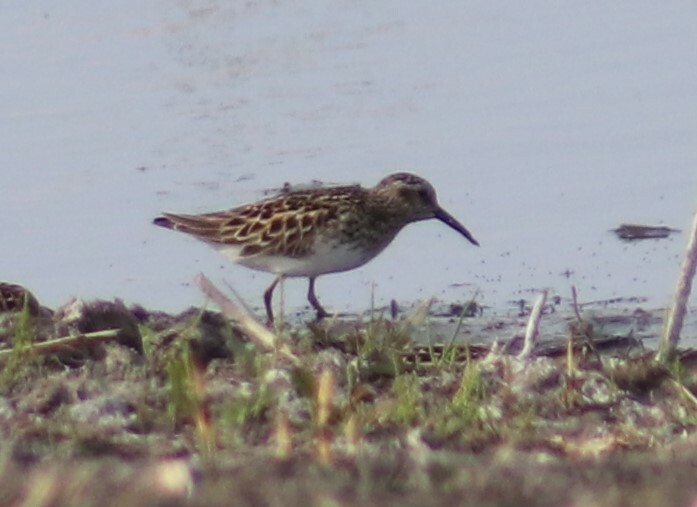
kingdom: Animalia
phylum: Chordata
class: Aves
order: Charadriiformes
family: Scolopacidae
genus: Calidris
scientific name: Calidris melanotos
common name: Pectoral sandpiper
